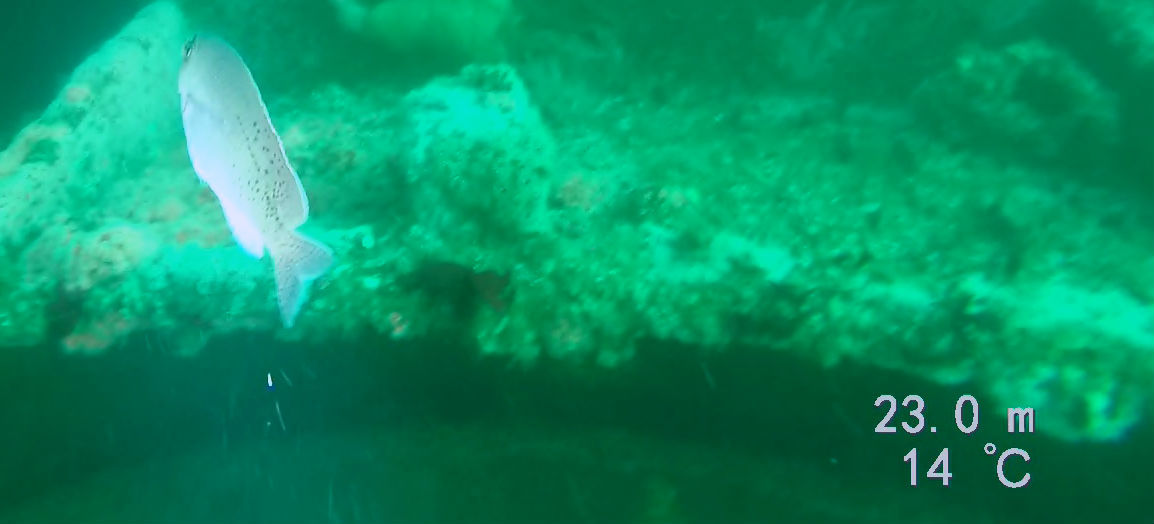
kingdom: Animalia
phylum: Chordata
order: Perciformes
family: Pomacentridae
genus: Chromis
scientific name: Chromis punctipinnis
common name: Blacksmith
